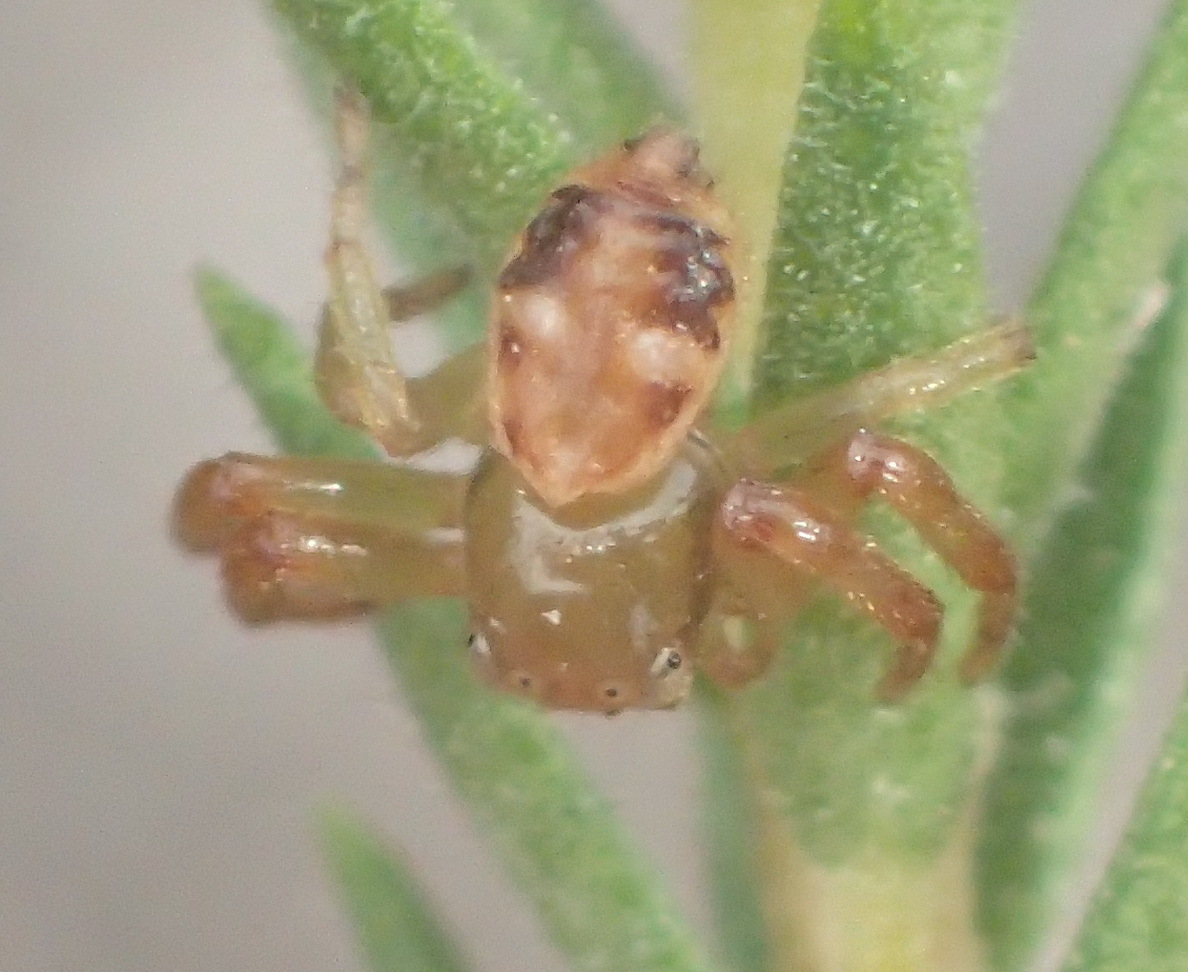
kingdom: Animalia
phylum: Arthropoda
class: Arachnida
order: Araneae
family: Thomisidae
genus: Synema
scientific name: Synema imitatrix
